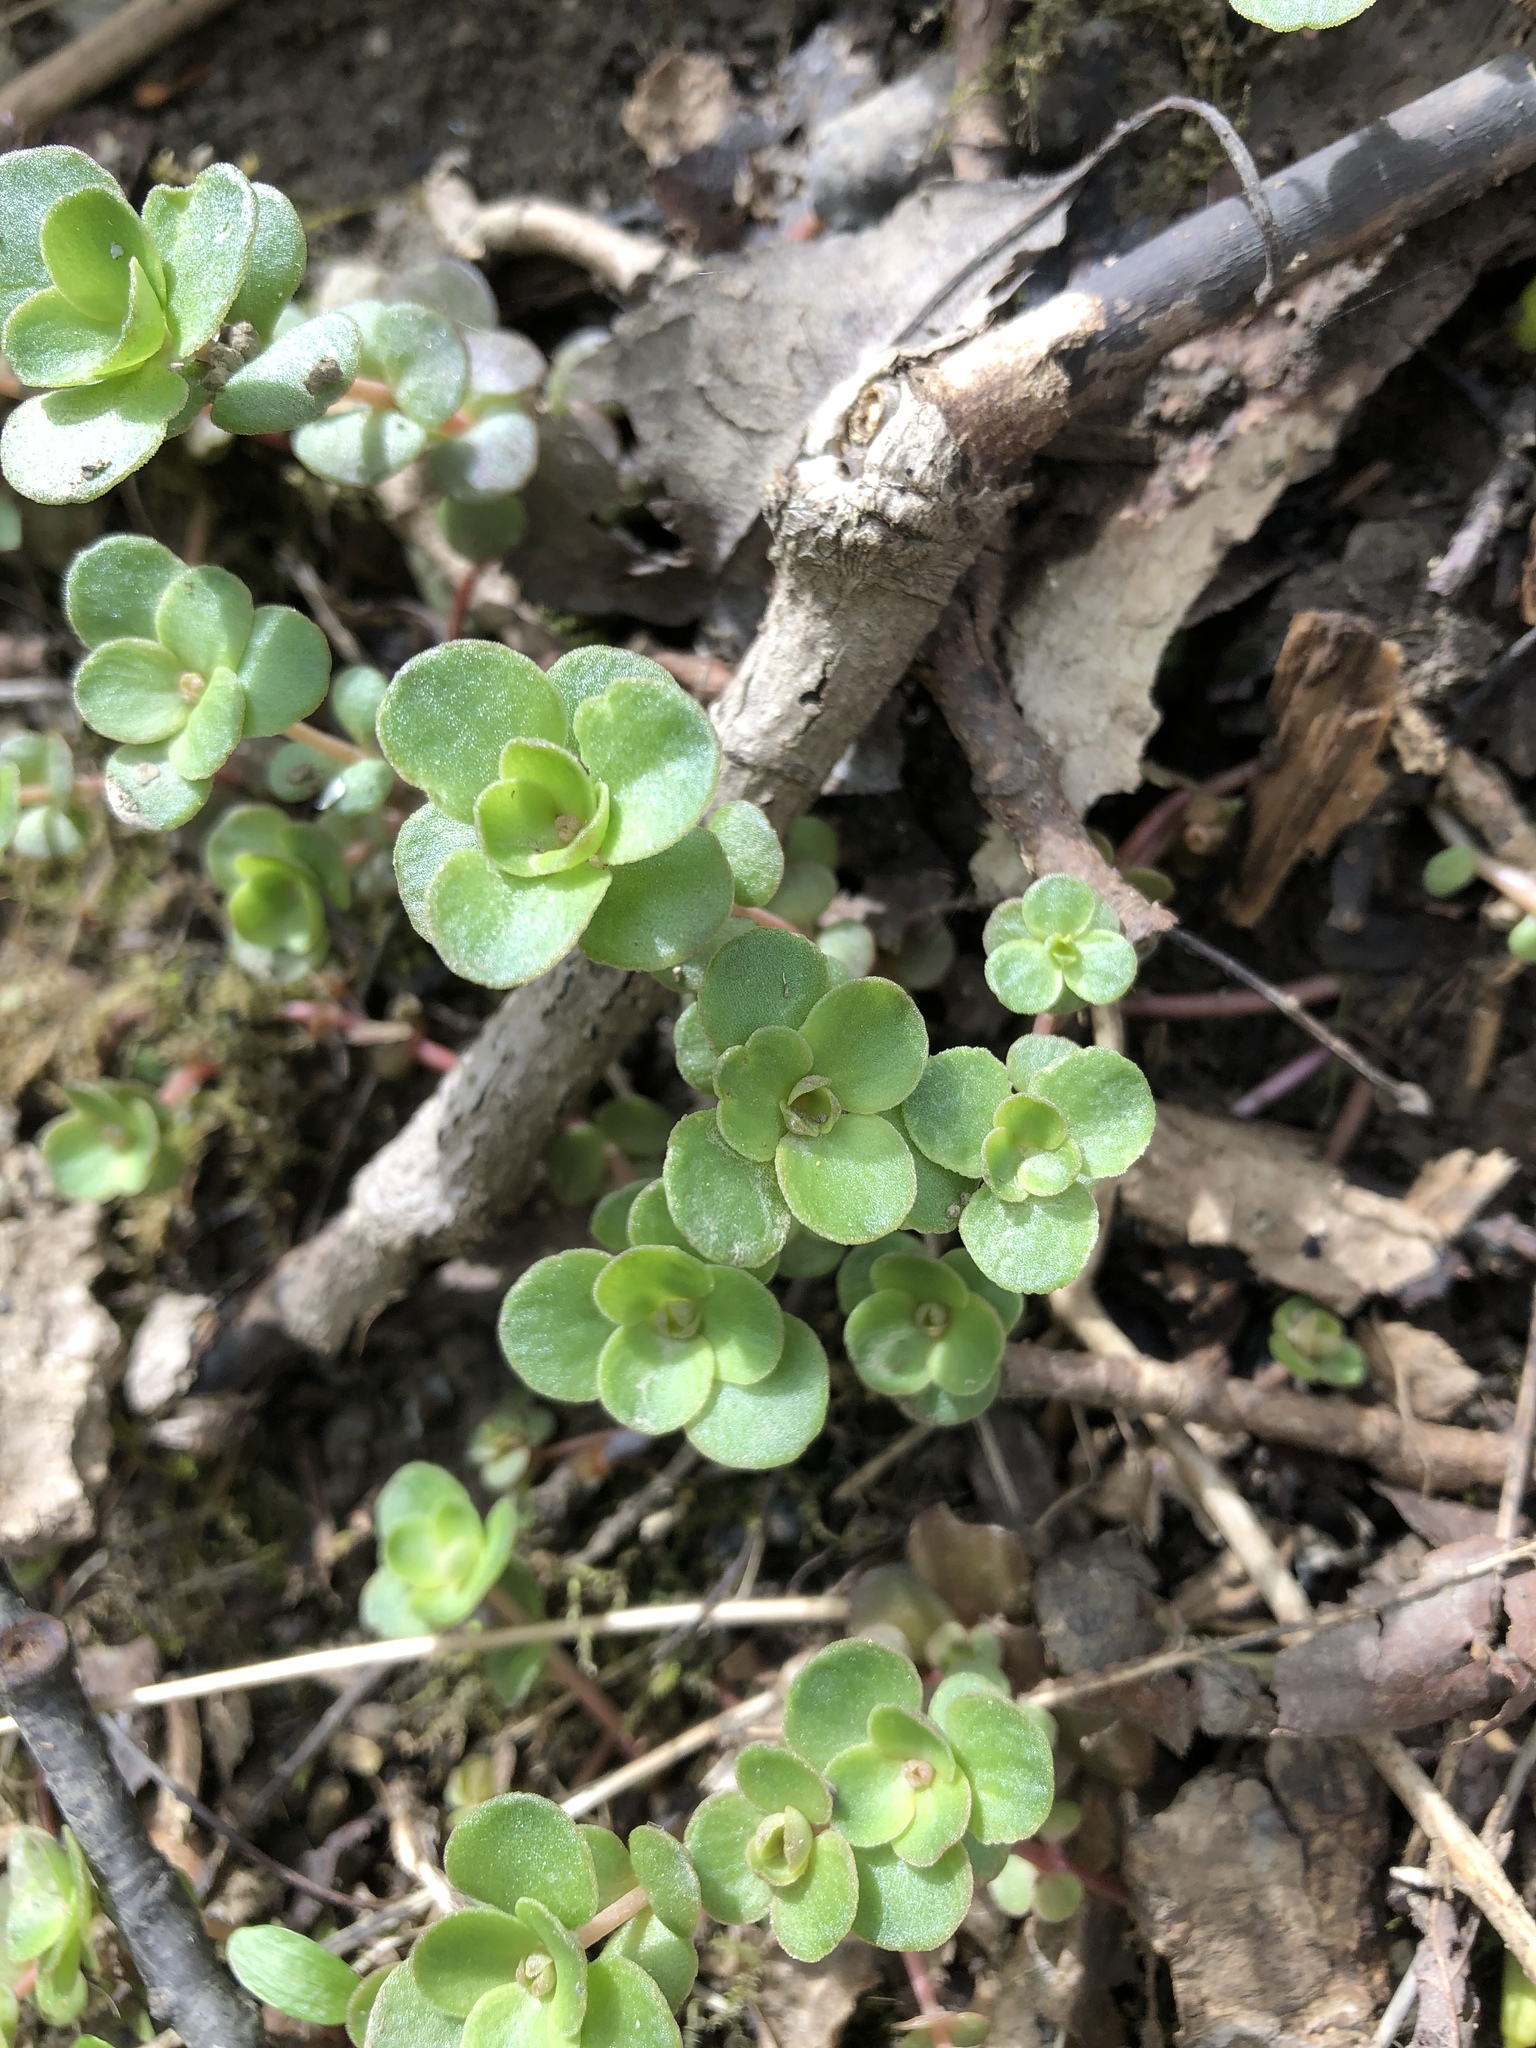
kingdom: Plantae
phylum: Tracheophyta
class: Magnoliopsida
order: Saxifragales
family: Crassulaceae
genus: Sedum
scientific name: Sedum ternatum
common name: Wild stonecrop
